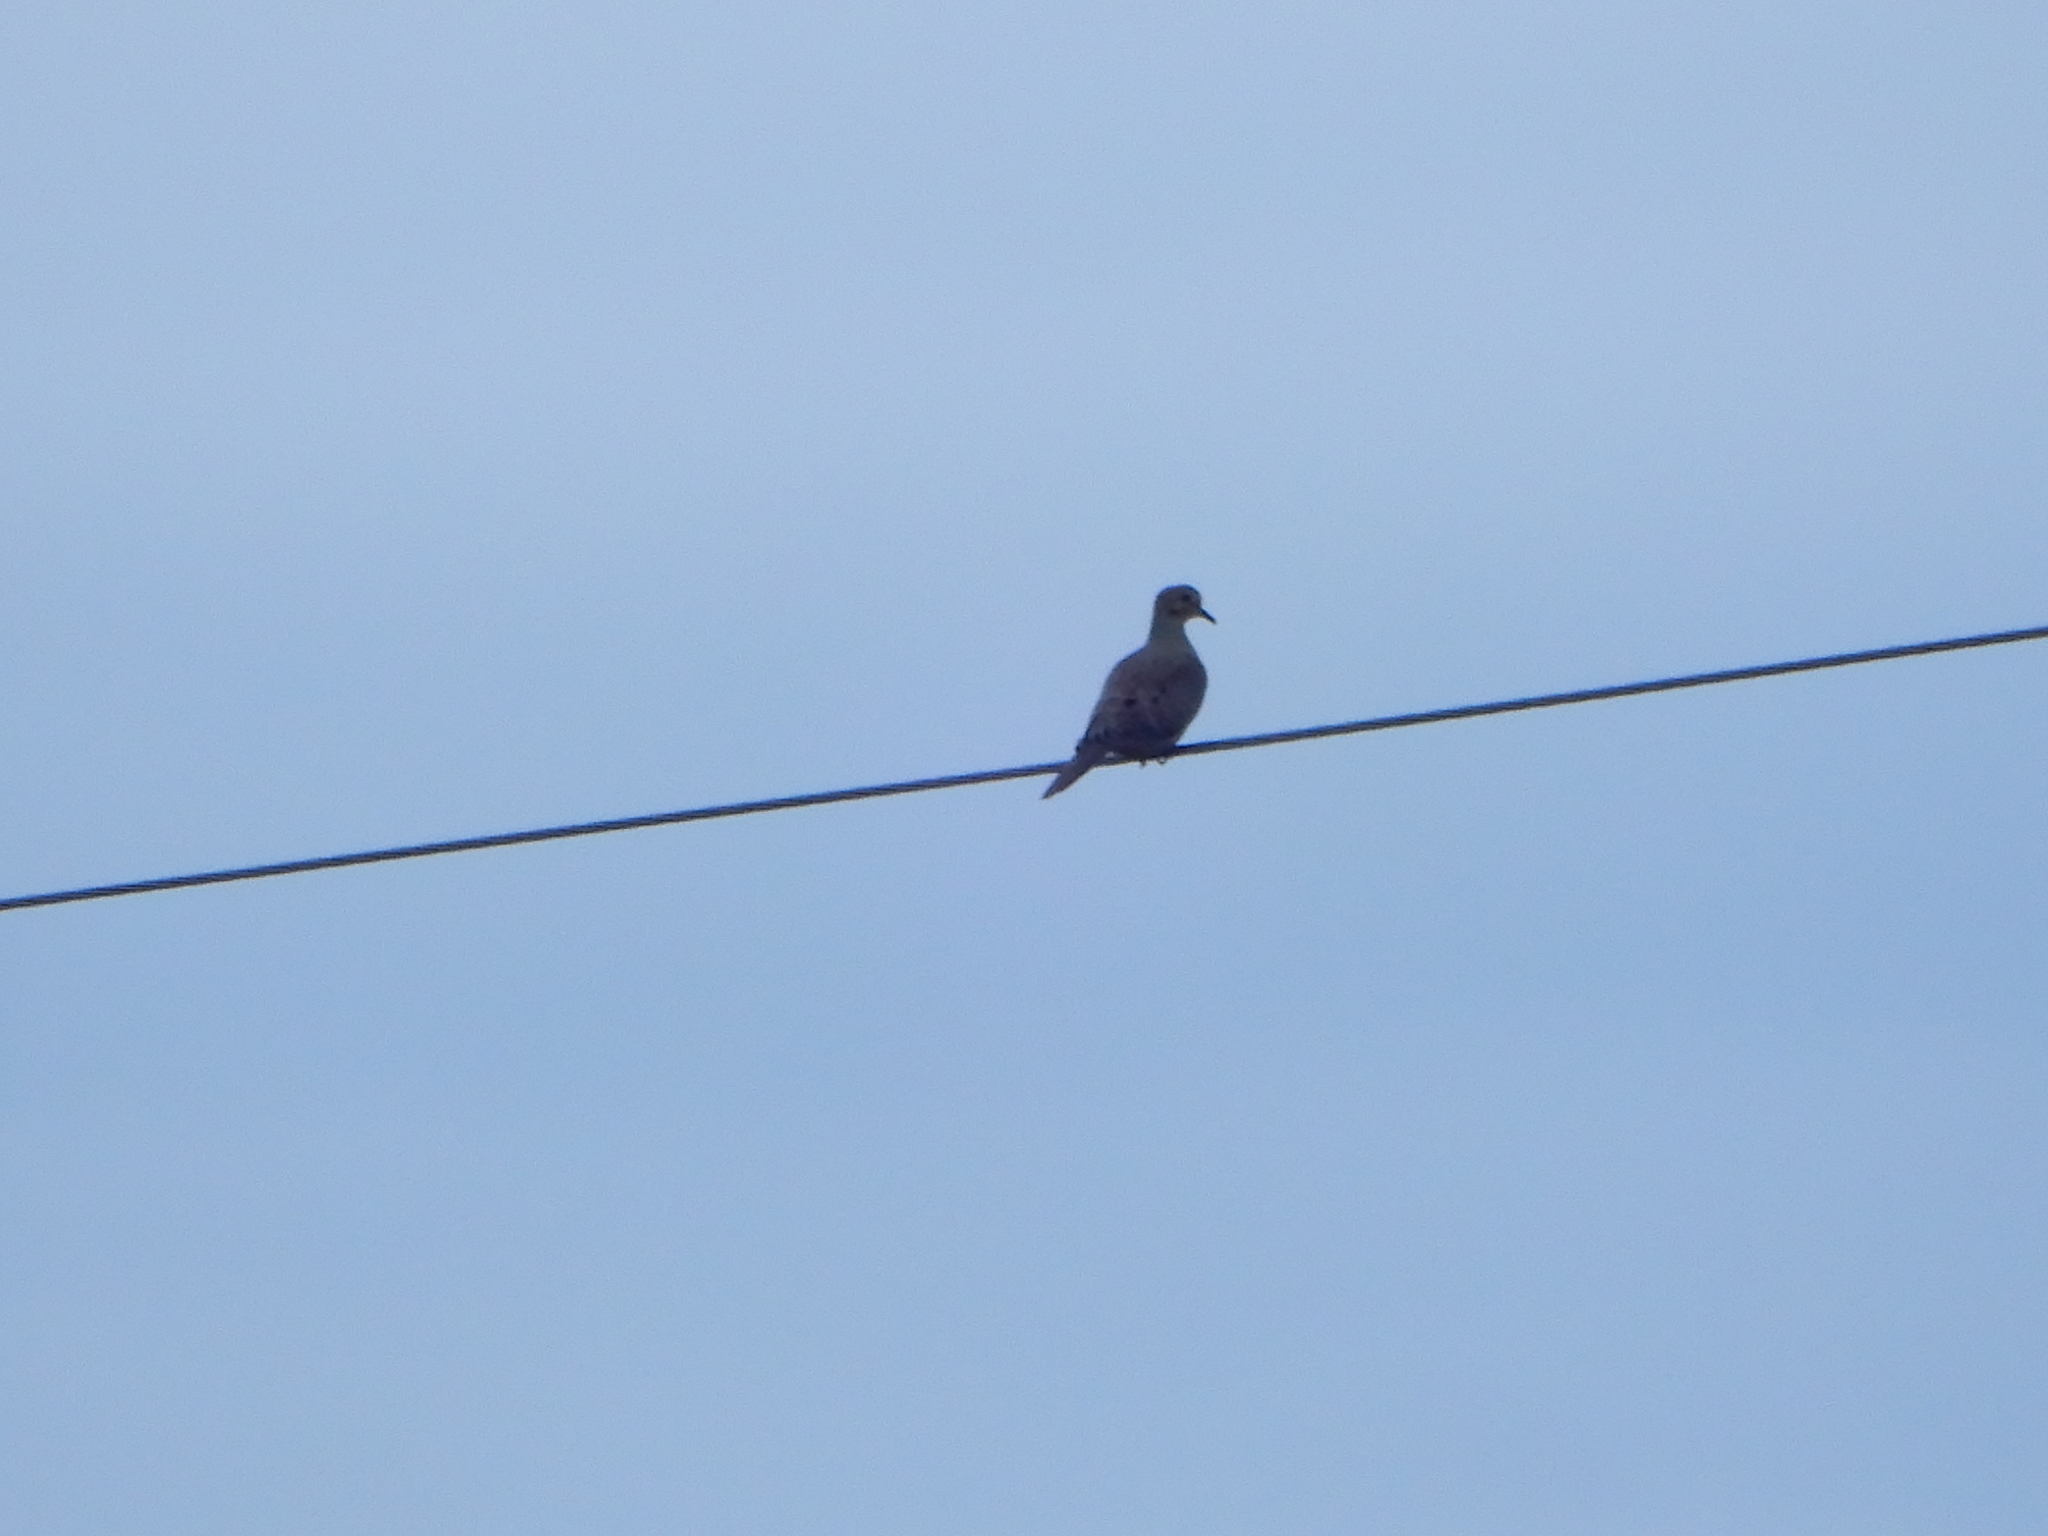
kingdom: Animalia
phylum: Chordata
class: Aves
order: Columbiformes
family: Columbidae
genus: Zenaida
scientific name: Zenaida macroura
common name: Mourning dove
